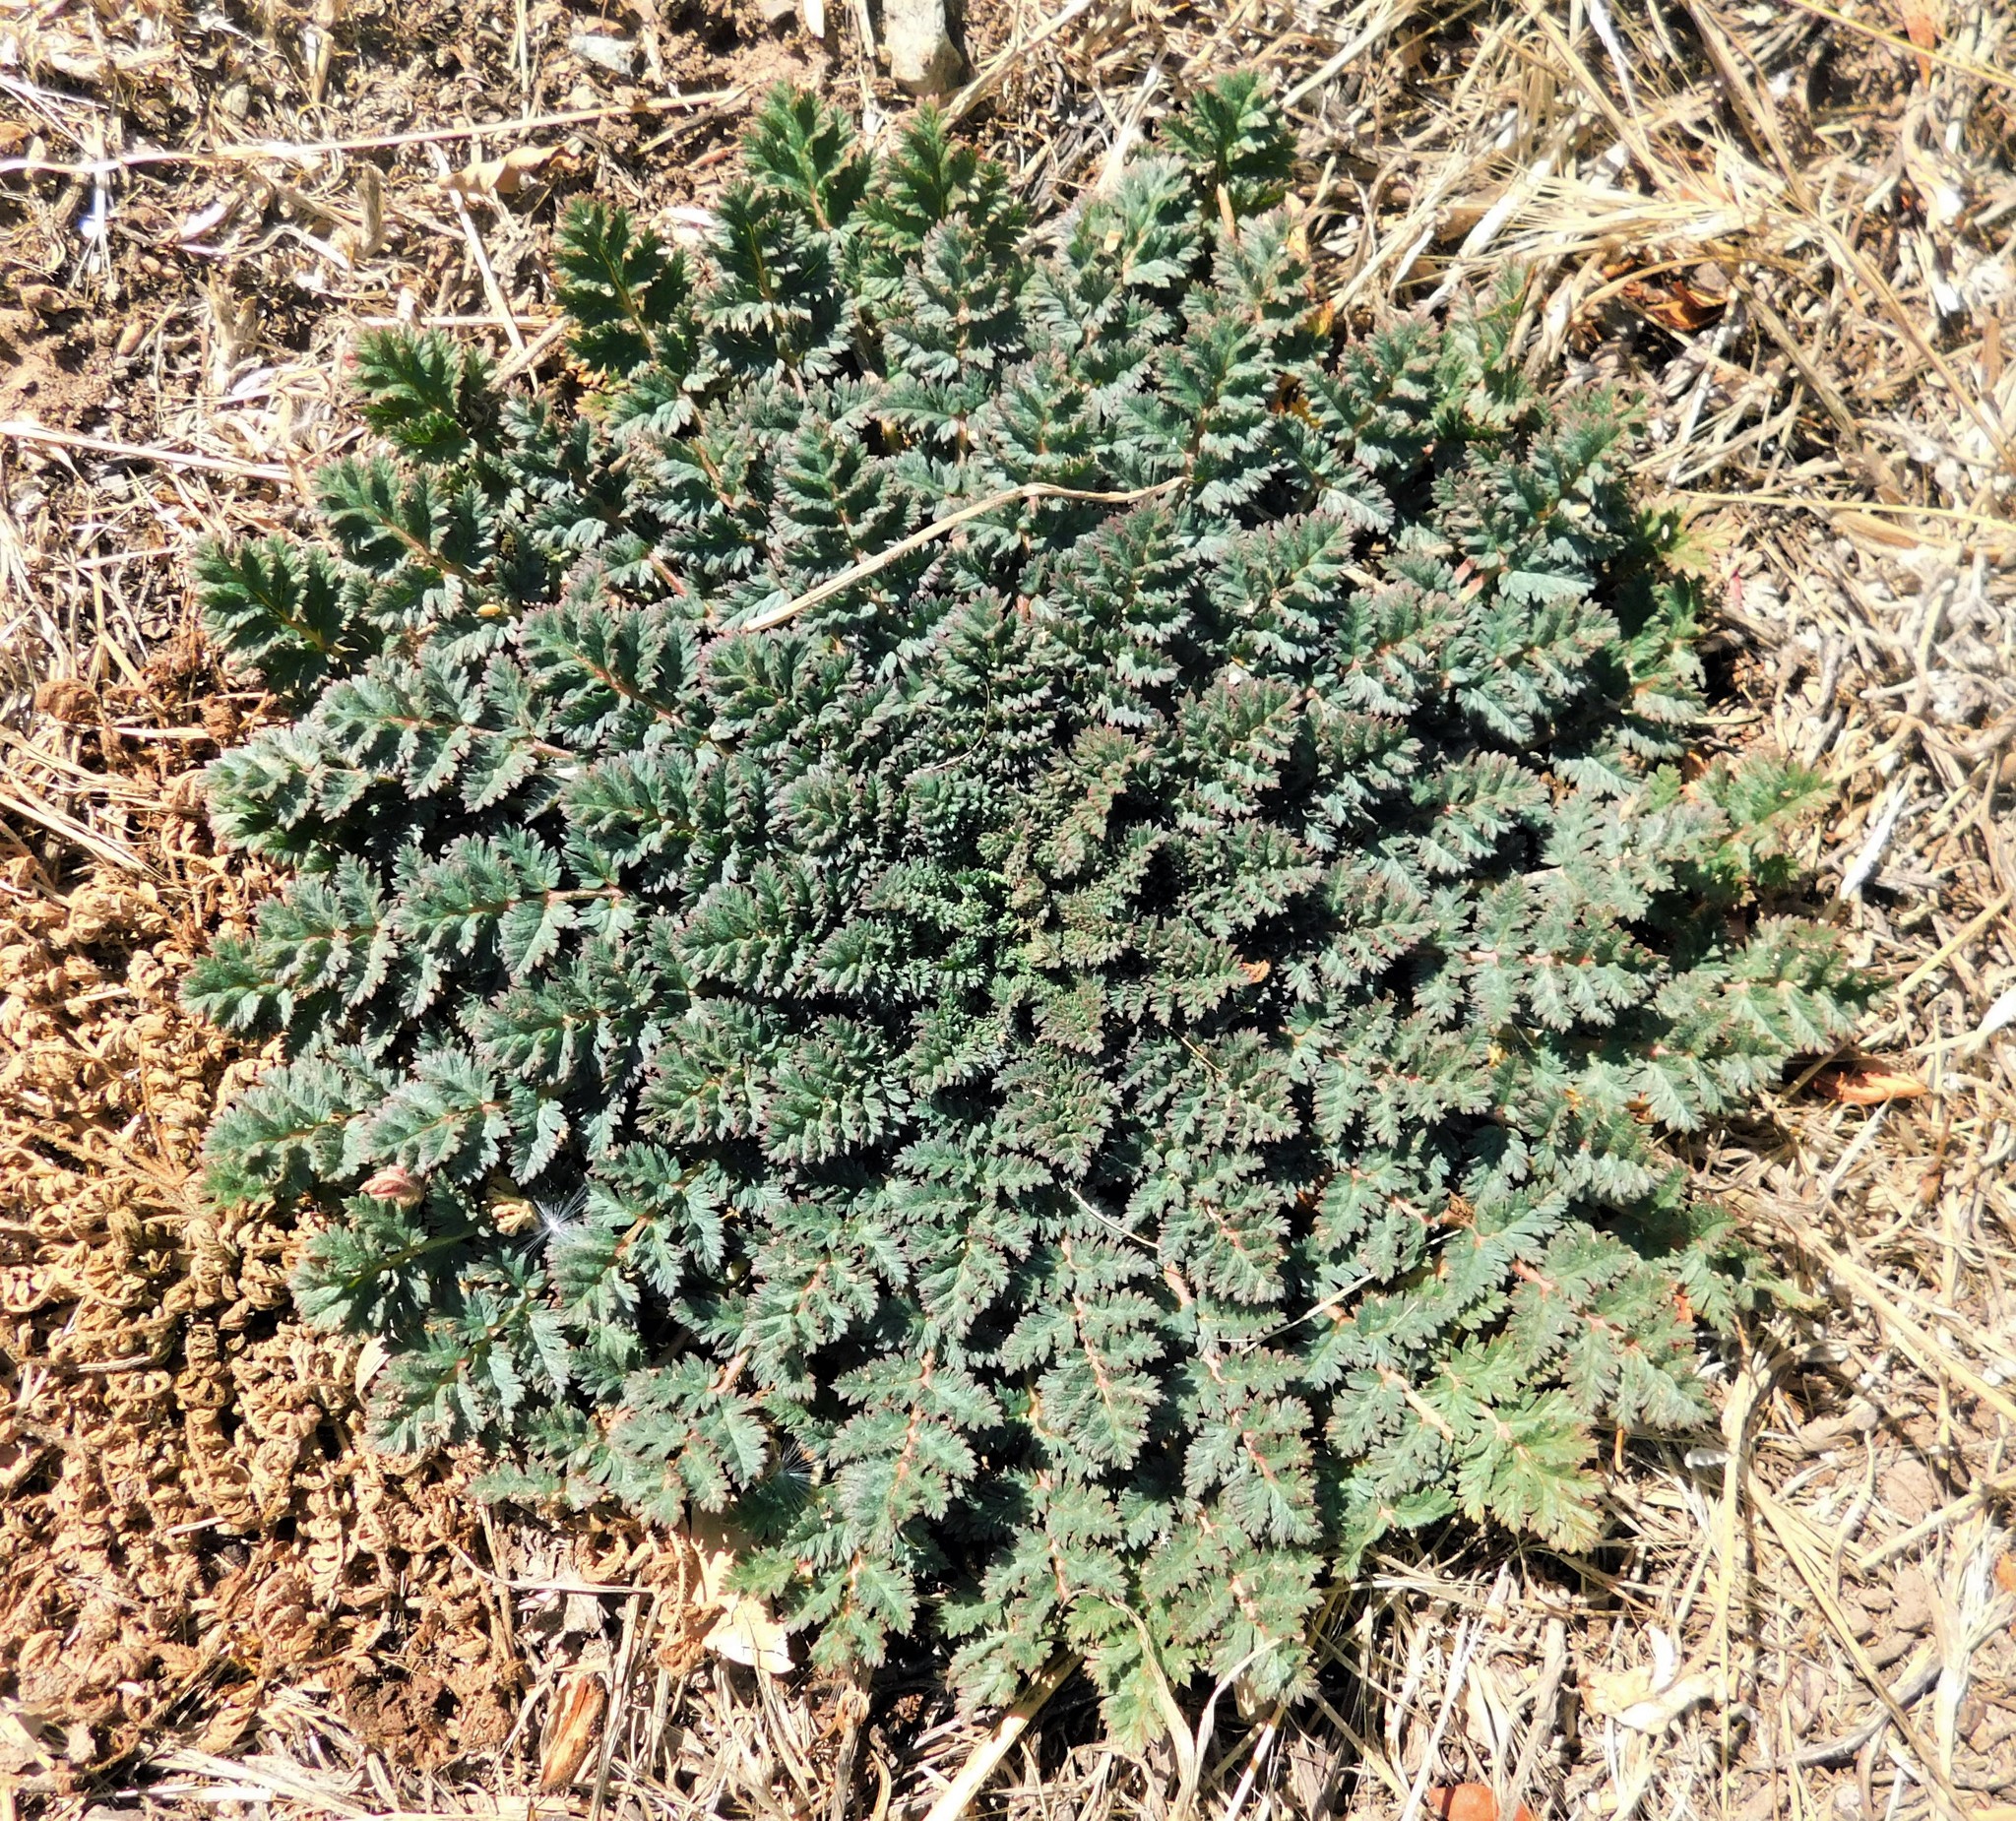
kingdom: Plantae
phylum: Tracheophyta
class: Magnoliopsida
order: Geraniales
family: Geraniaceae
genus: Erodium
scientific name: Erodium cicutarium
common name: Common stork's-bill
